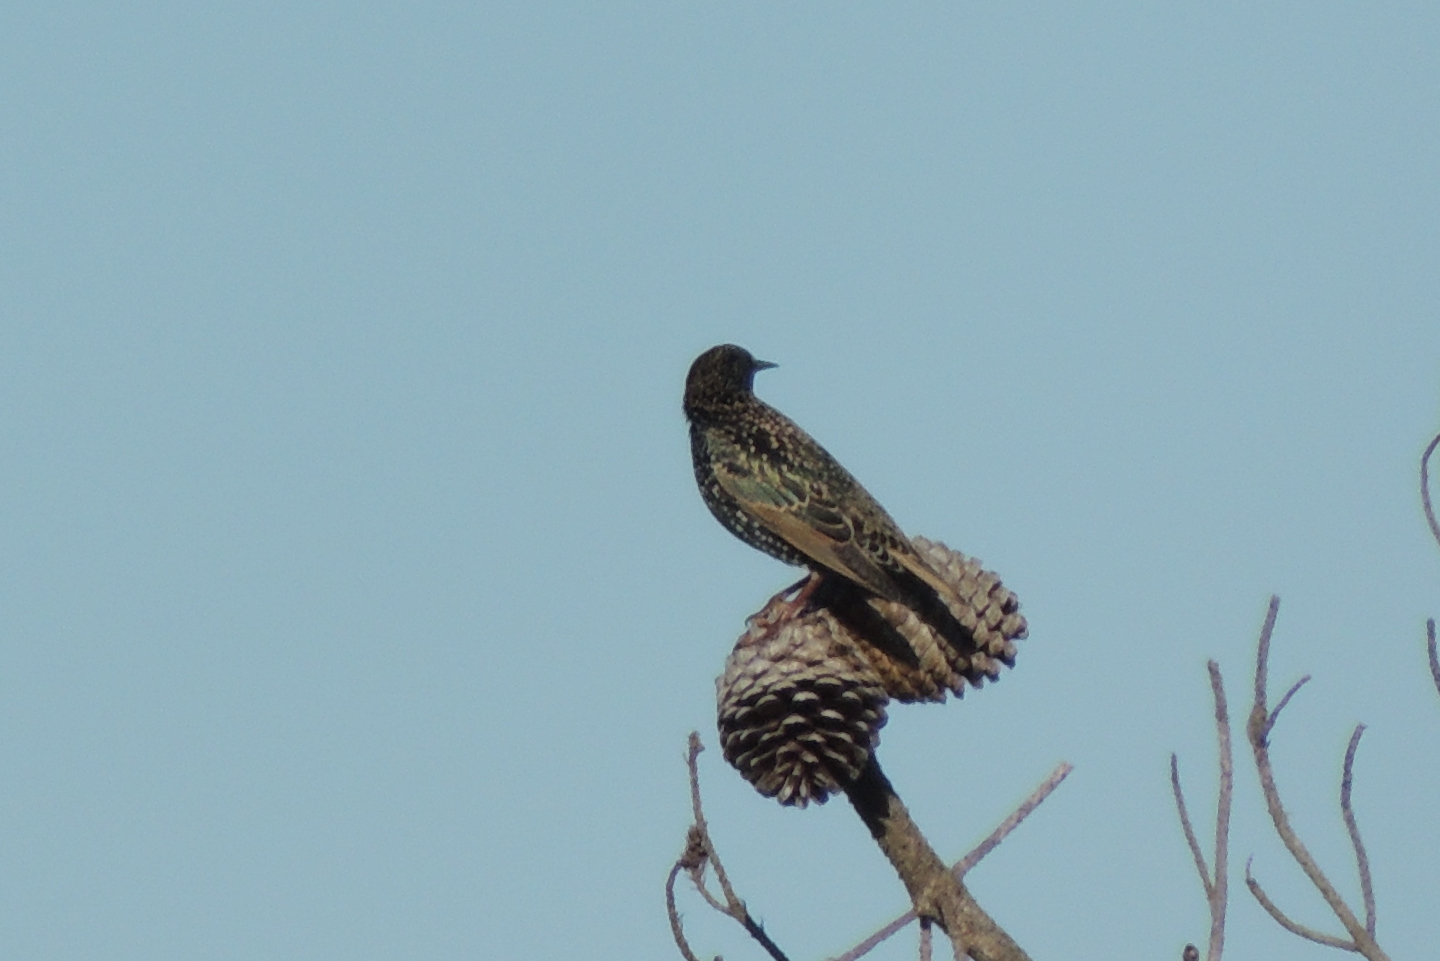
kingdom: Animalia
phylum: Chordata
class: Aves
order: Passeriformes
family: Sturnidae
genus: Sturnus
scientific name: Sturnus vulgaris
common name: Common starling
